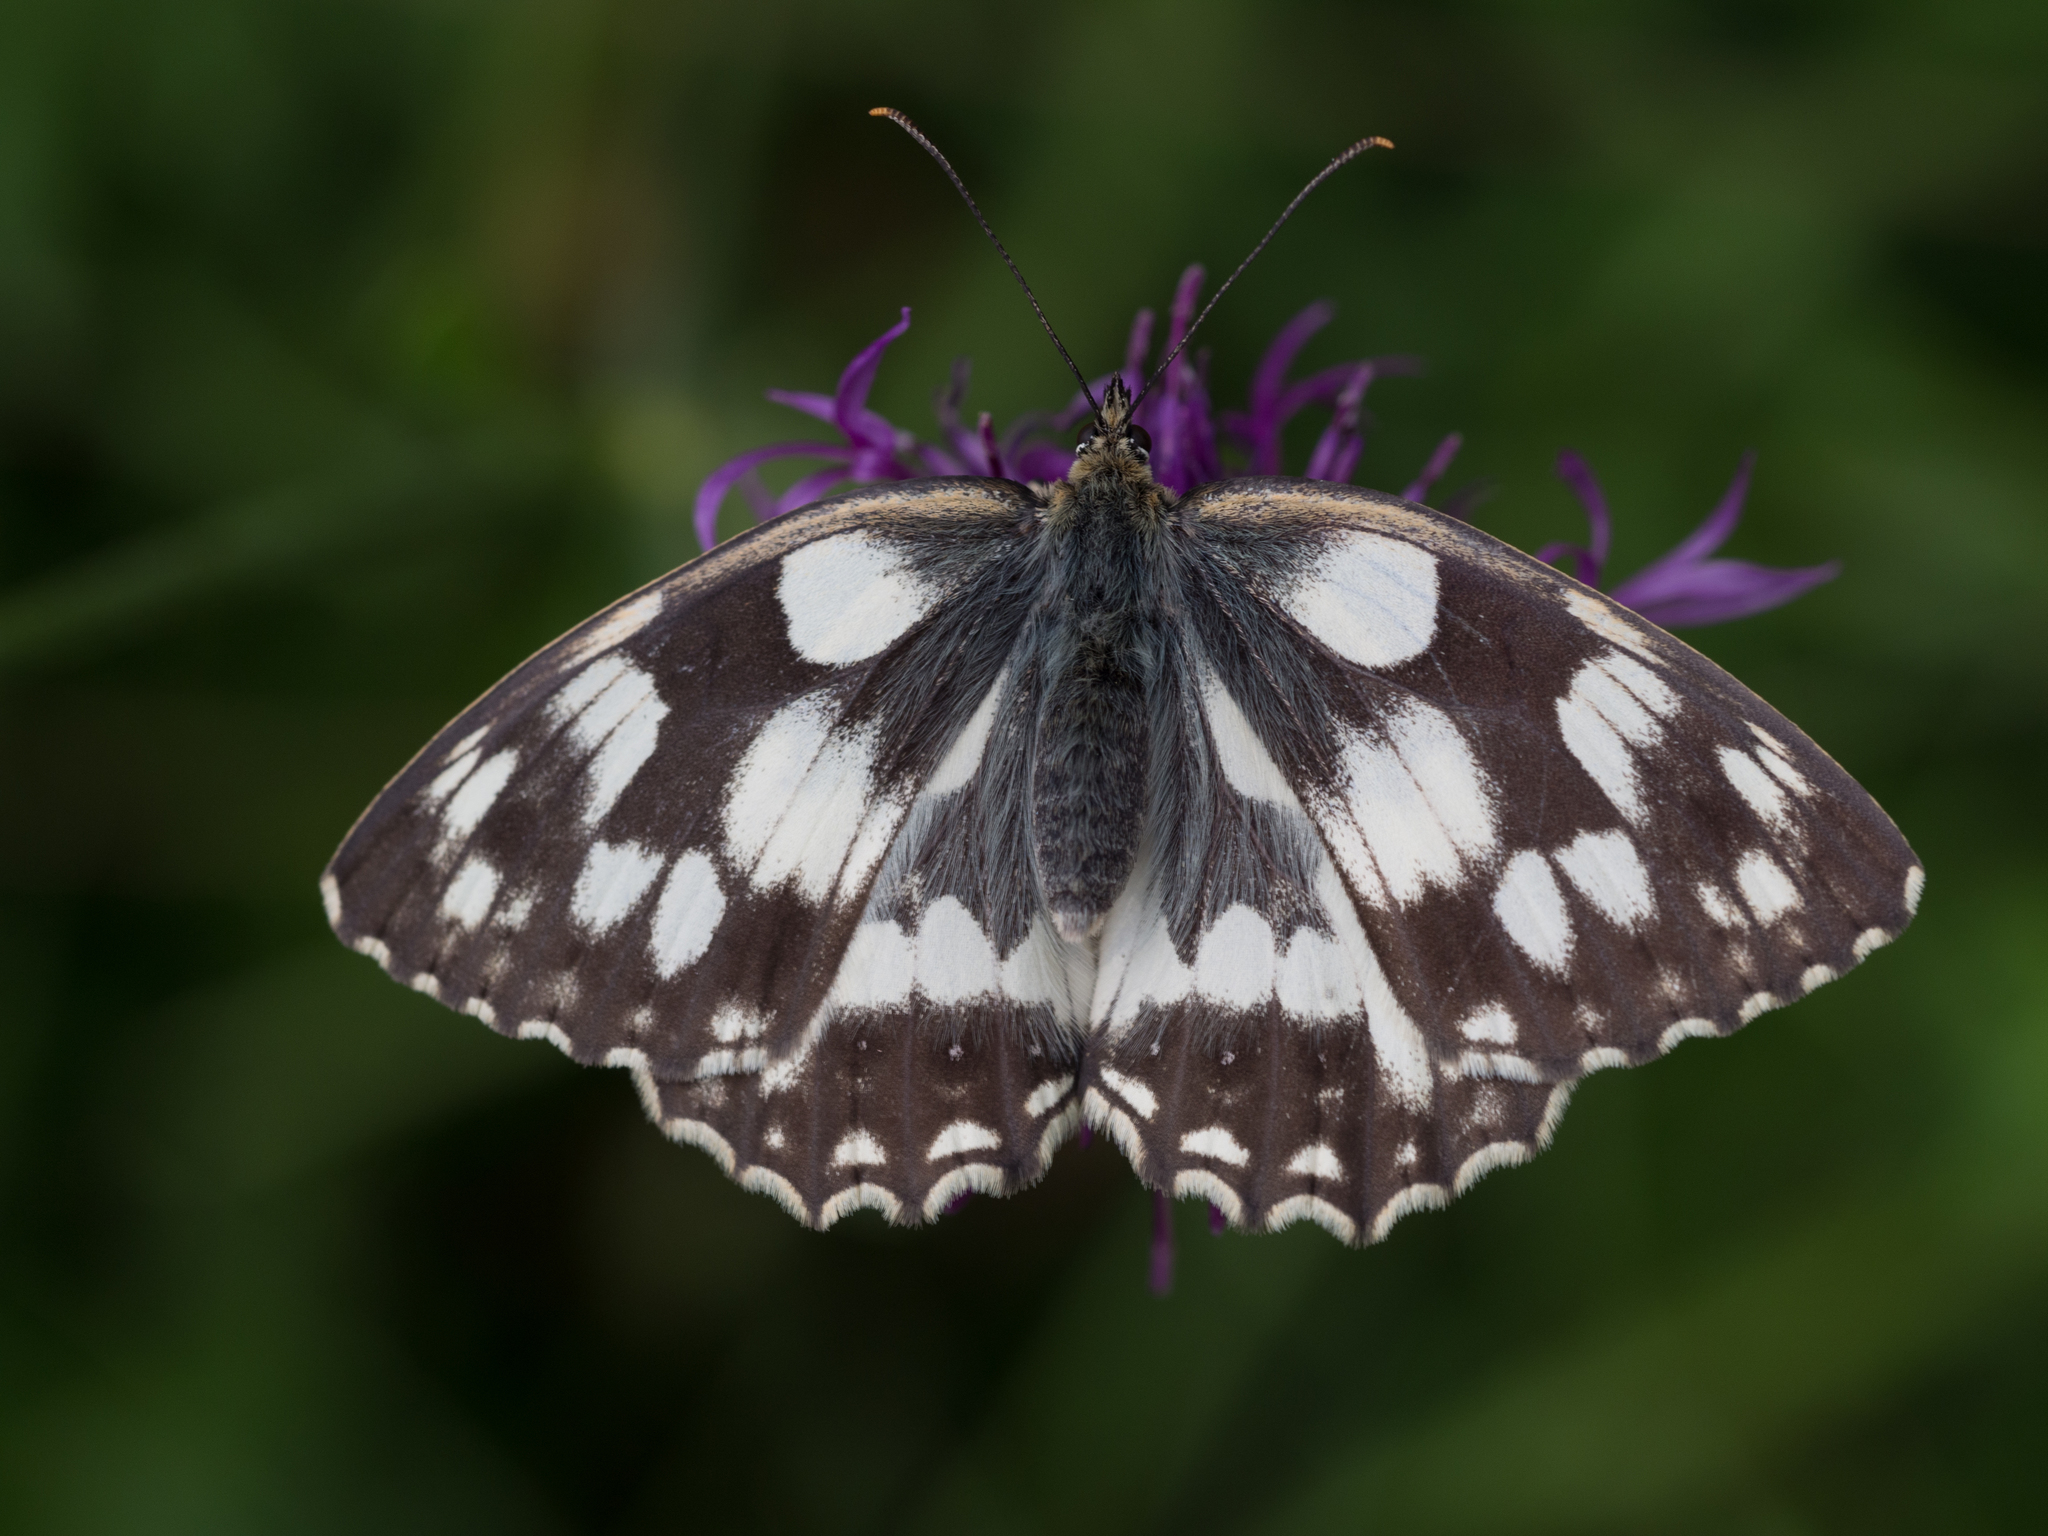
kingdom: Animalia
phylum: Arthropoda
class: Insecta
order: Lepidoptera
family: Nymphalidae
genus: Melanargia
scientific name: Melanargia galathea
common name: Marbled white
